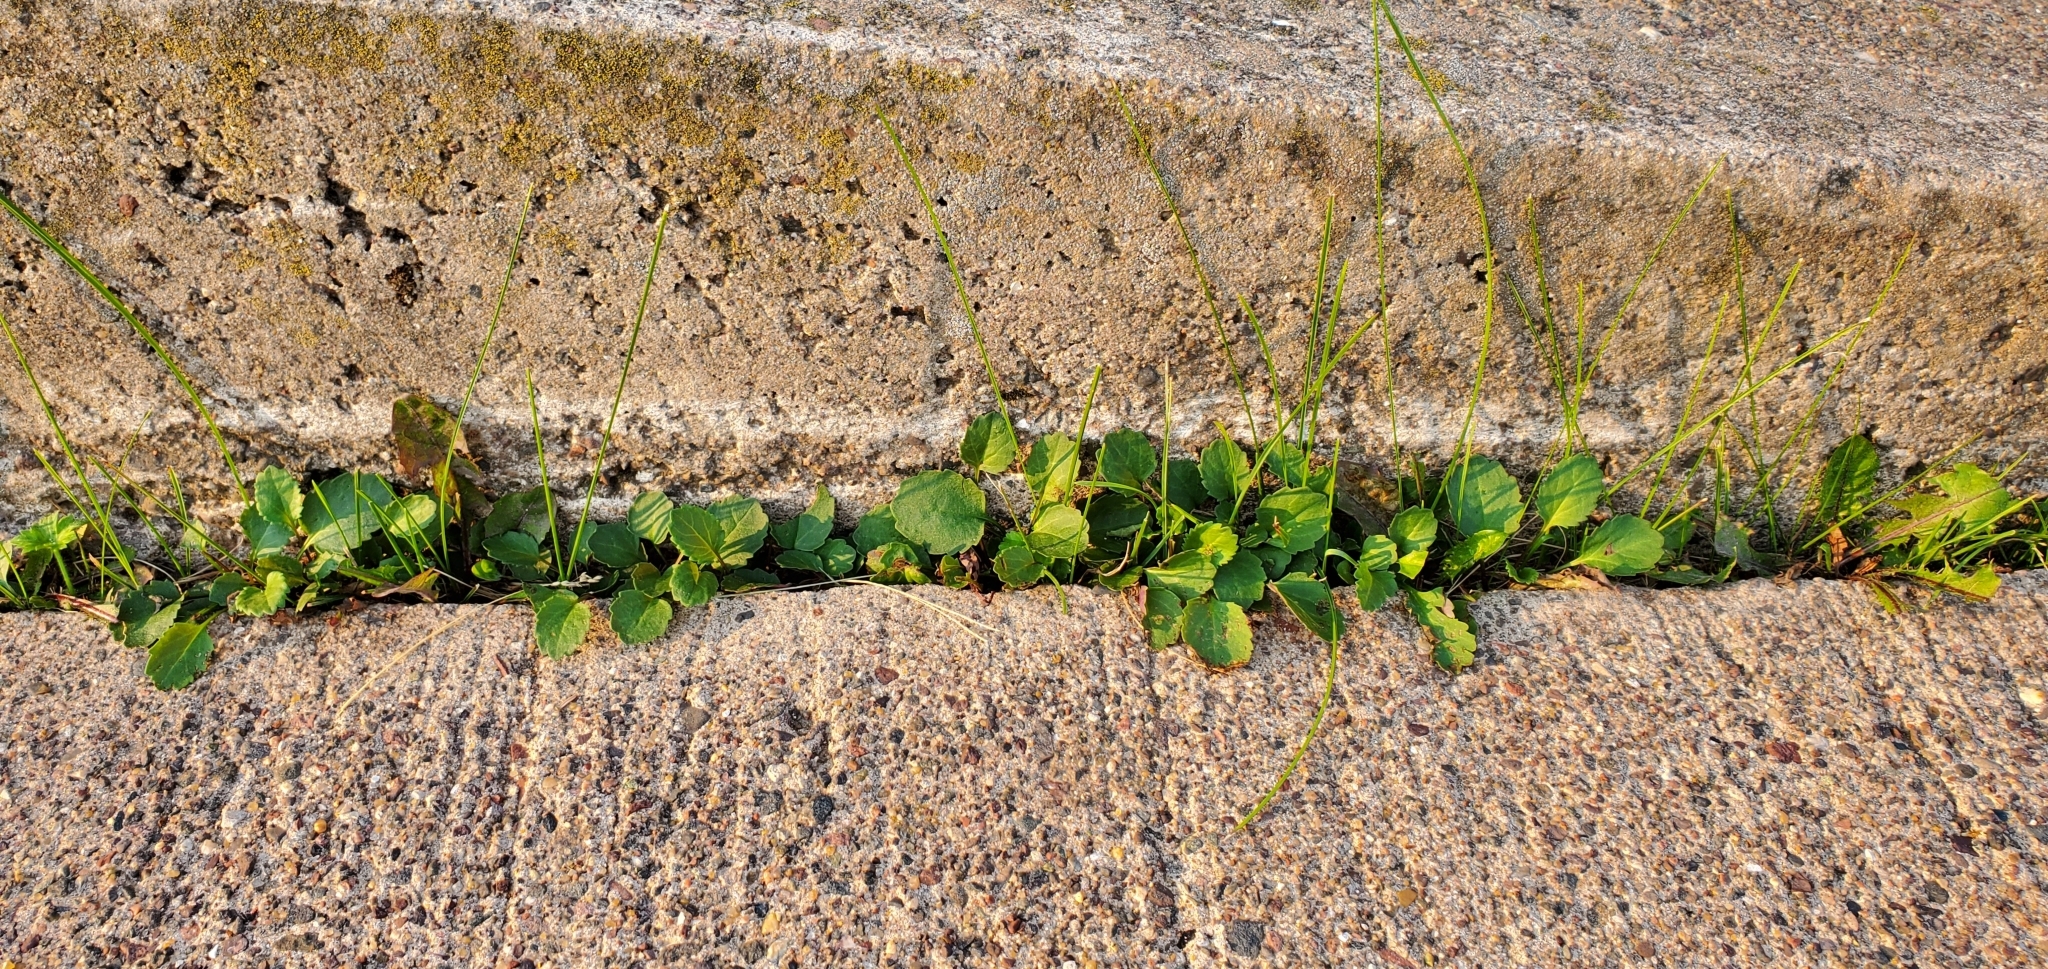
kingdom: Plantae
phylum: Tracheophyta
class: Magnoliopsida
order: Asterales
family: Asteraceae
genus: Packera
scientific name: Packera indecora
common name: Elegant groundsel
